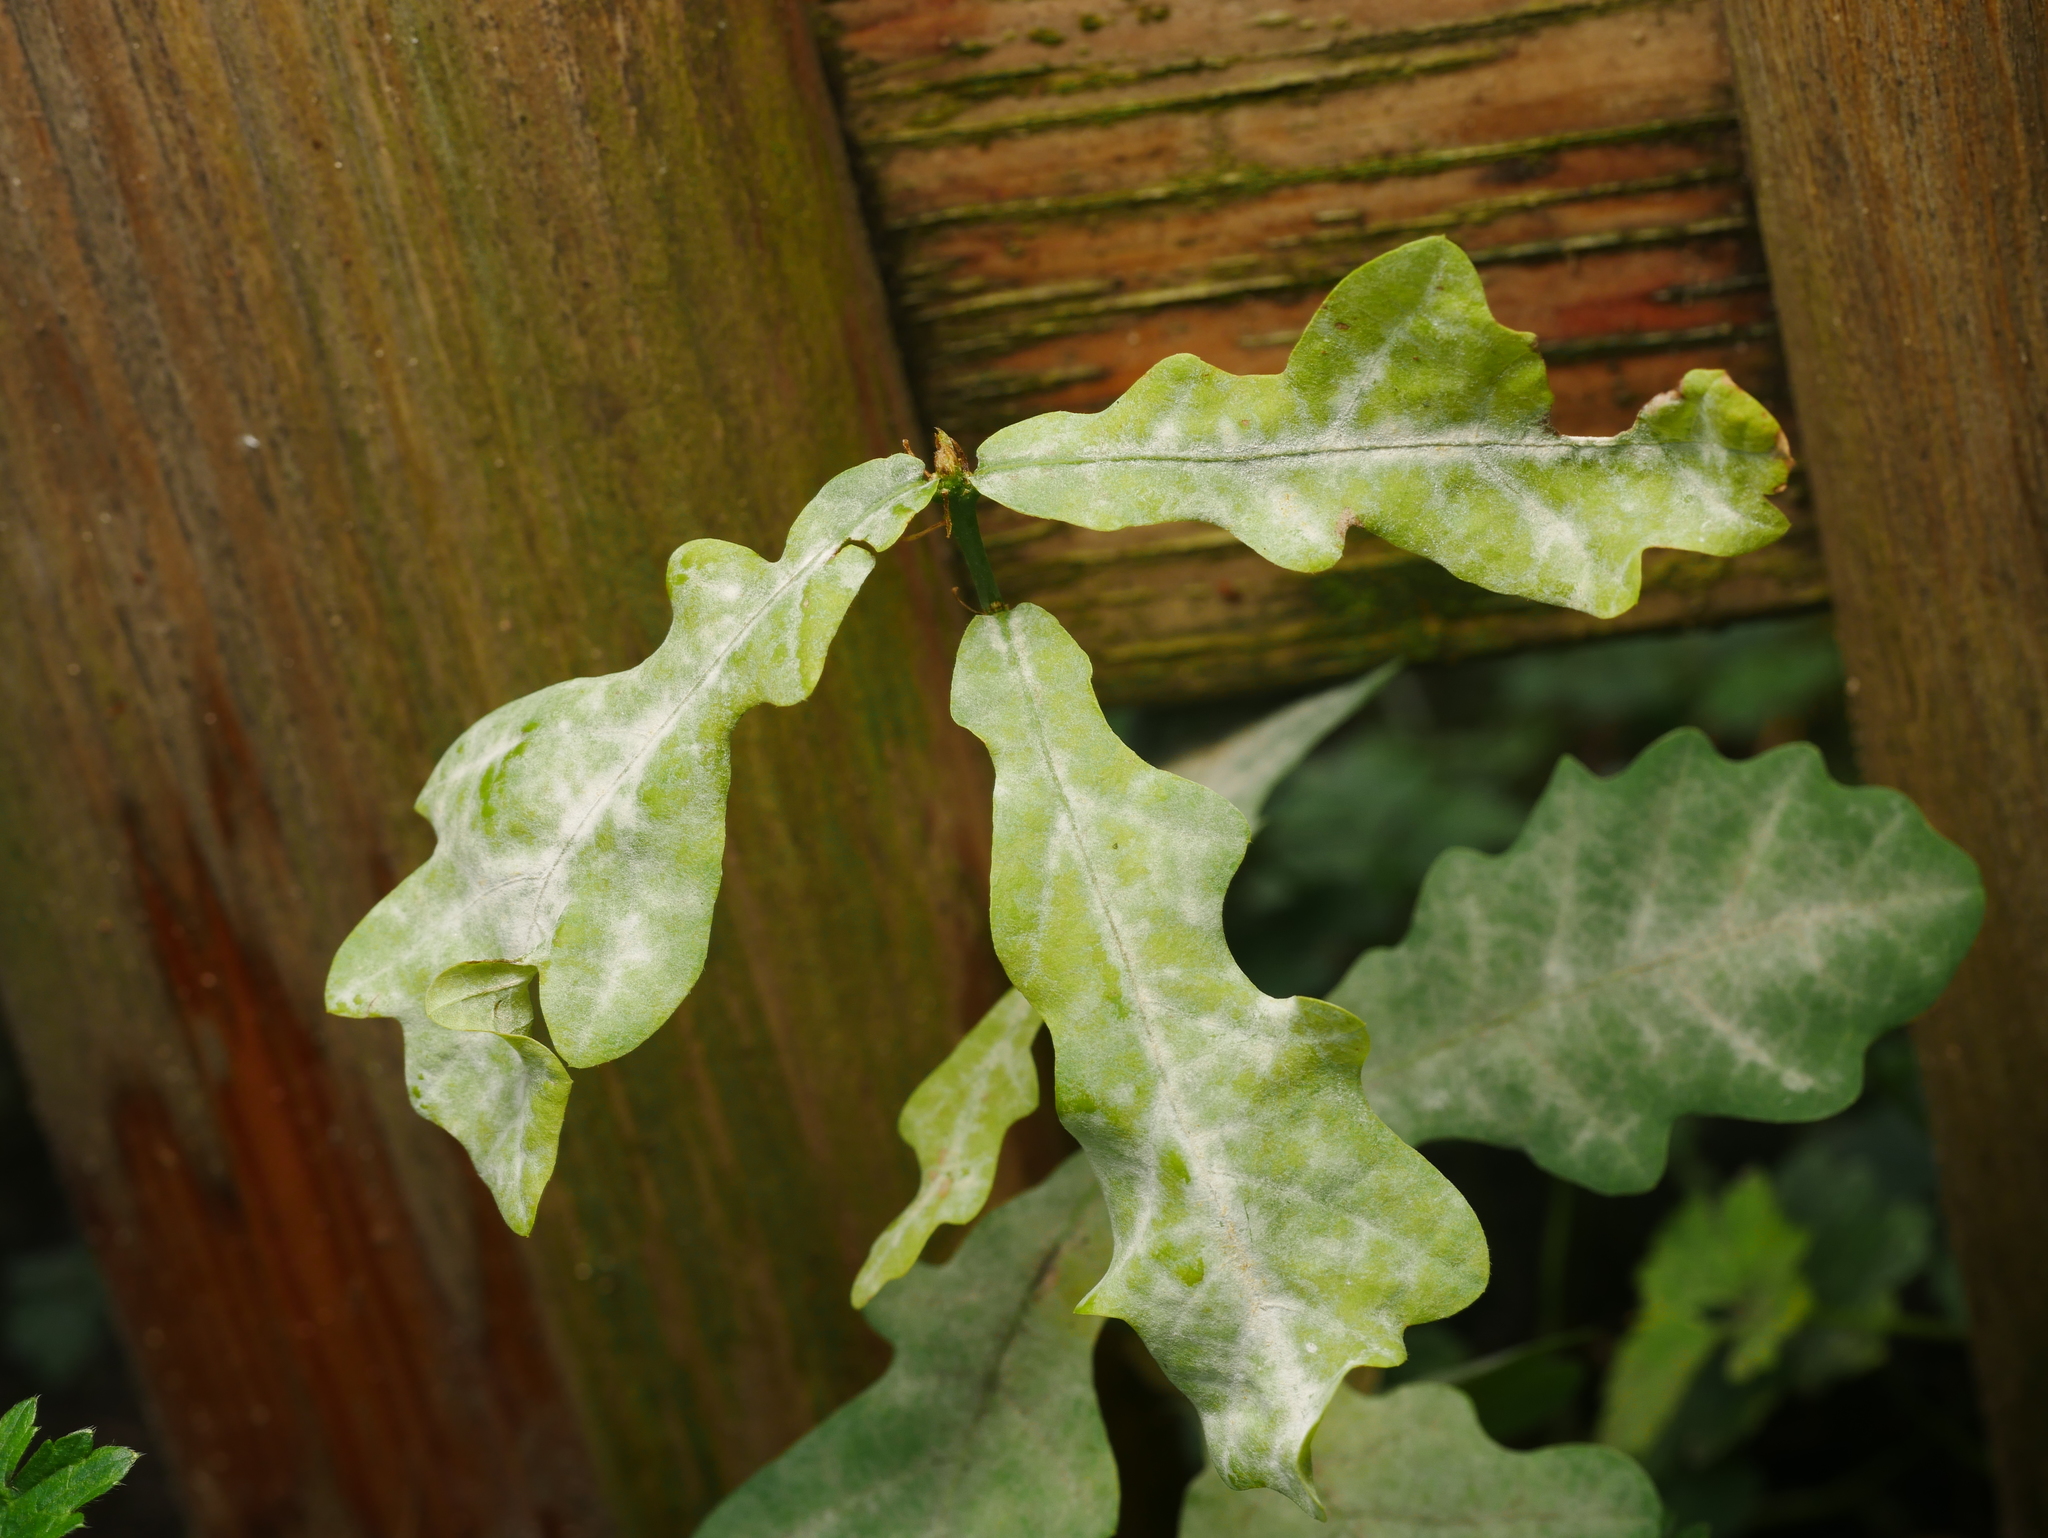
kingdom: Plantae
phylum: Tracheophyta
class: Magnoliopsida
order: Fagales
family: Fagaceae
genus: Quercus
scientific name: Quercus robur
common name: Pedunculate oak
